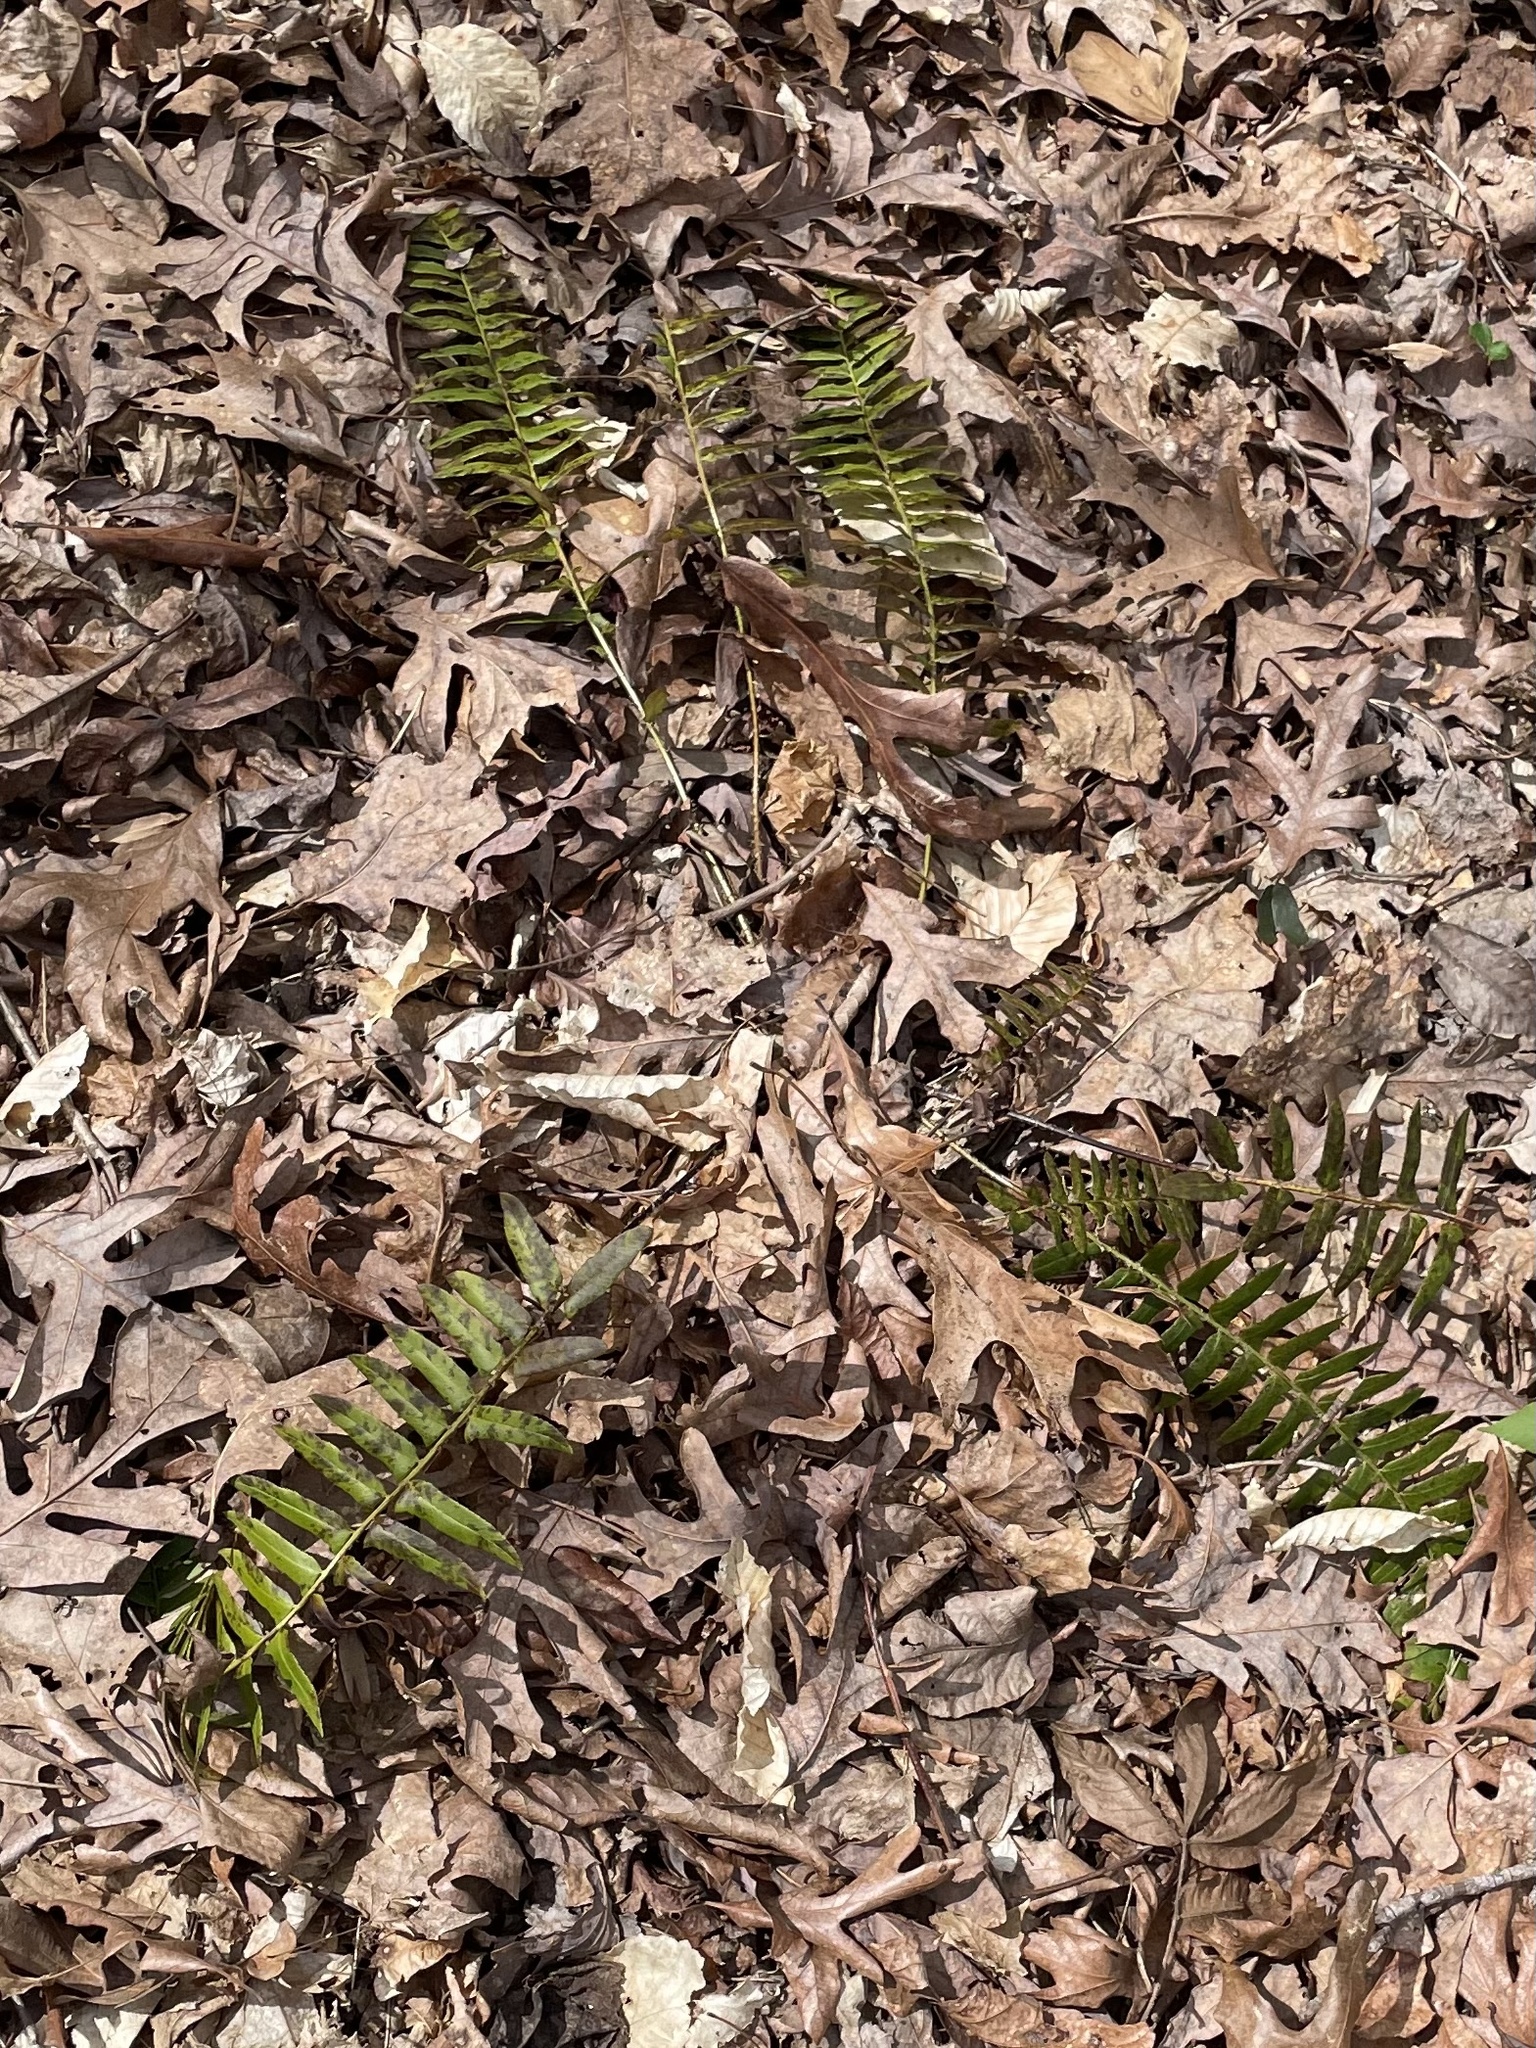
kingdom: Plantae
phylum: Tracheophyta
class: Polypodiopsida
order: Polypodiales
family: Dryopteridaceae
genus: Polystichum
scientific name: Polystichum acrostichoides
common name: Christmas fern
